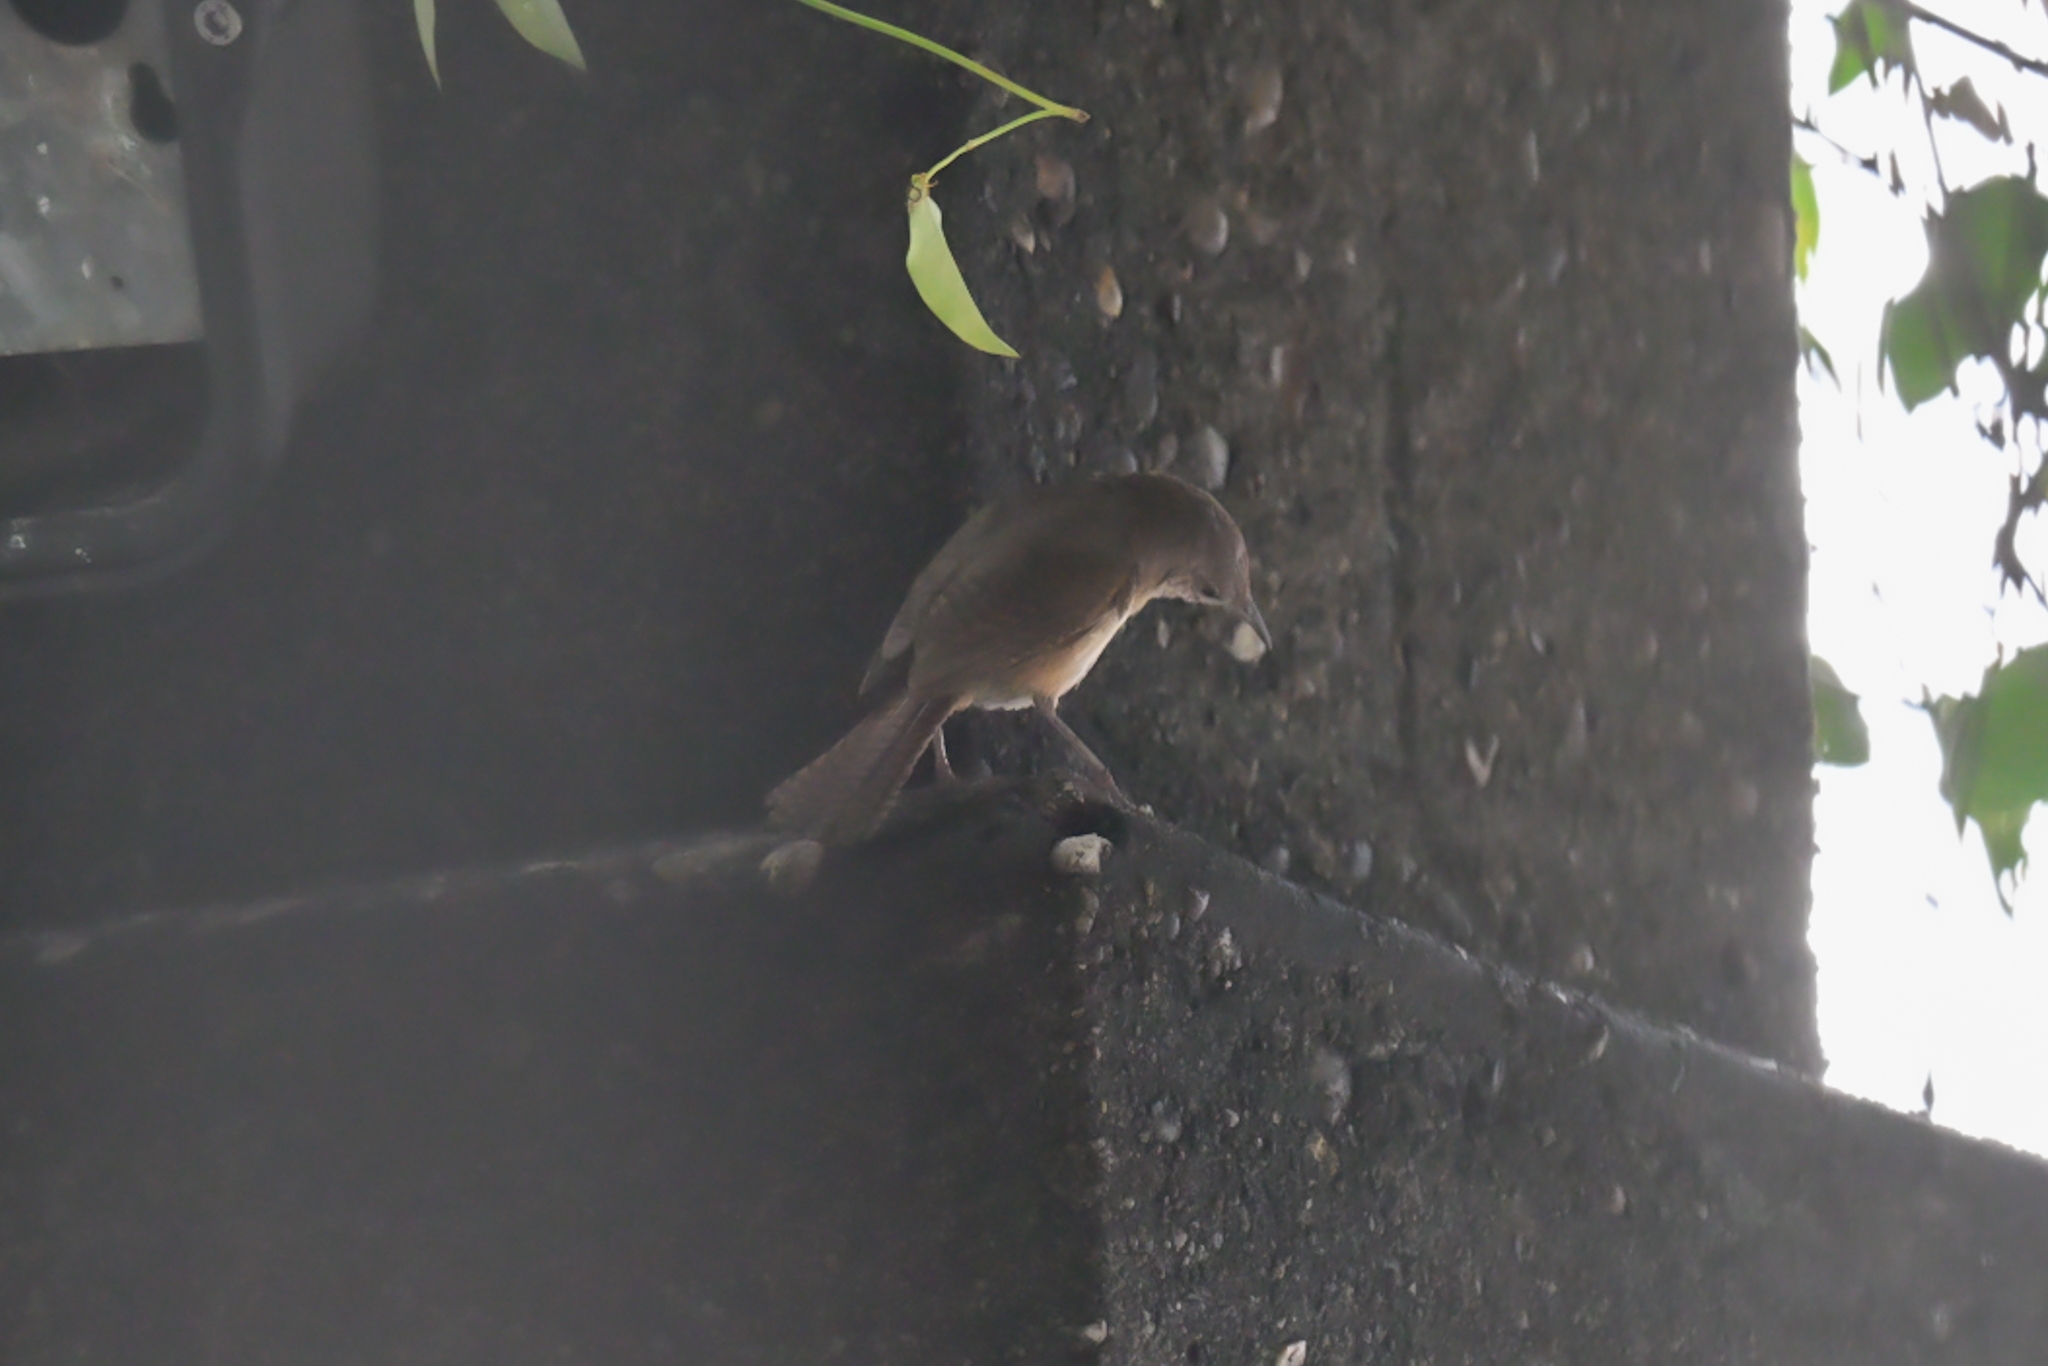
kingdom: Animalia
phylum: Chordata
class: Aves
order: Passeriformes
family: Troglodytidae
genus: Troglodytes
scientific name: Troglodytes aedon
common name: House wren
